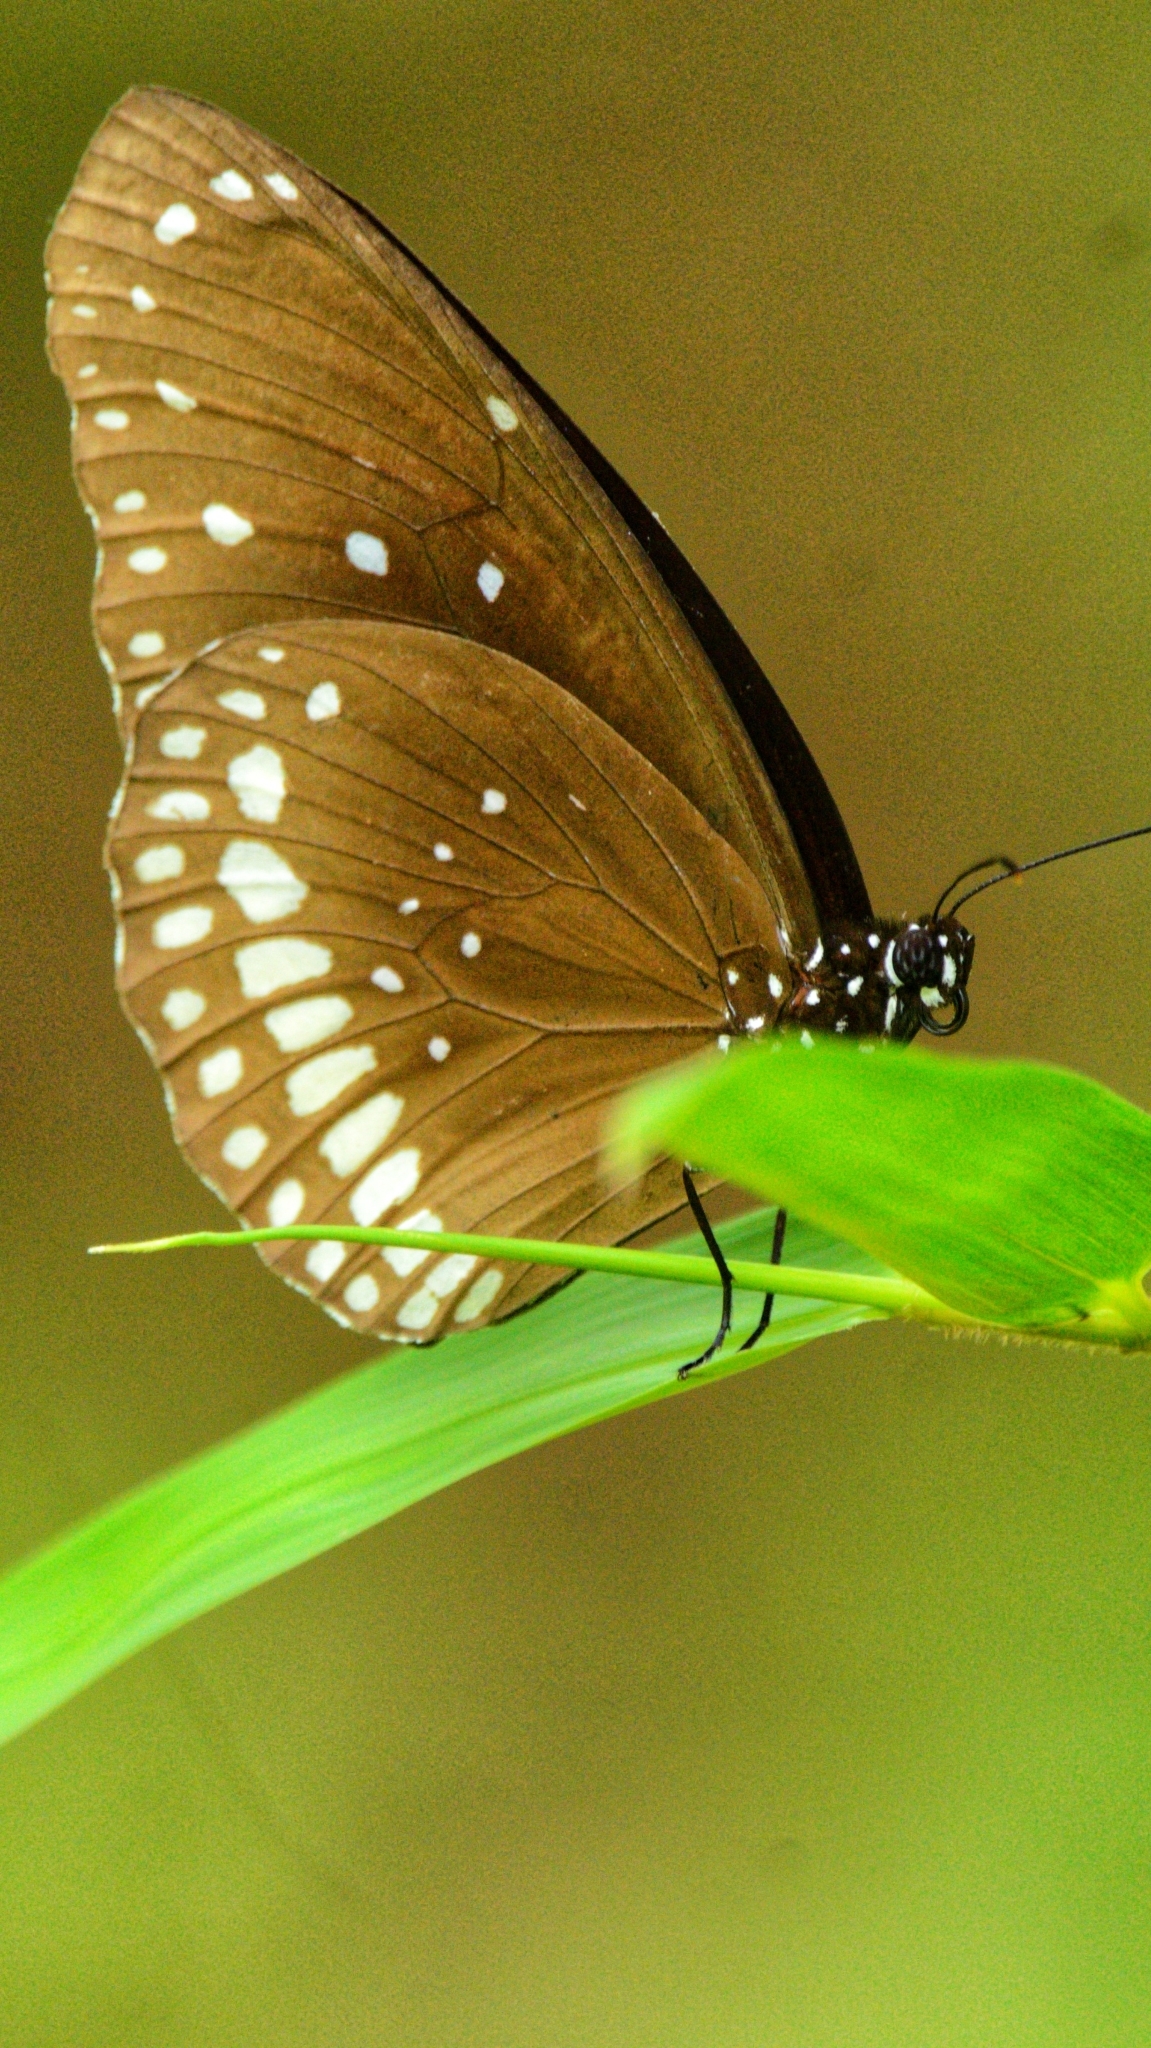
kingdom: Animalia
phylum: Arthropoda
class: Insecta
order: Lepidoptera
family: Nymphalidae
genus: Euploea
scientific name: Euploea core
